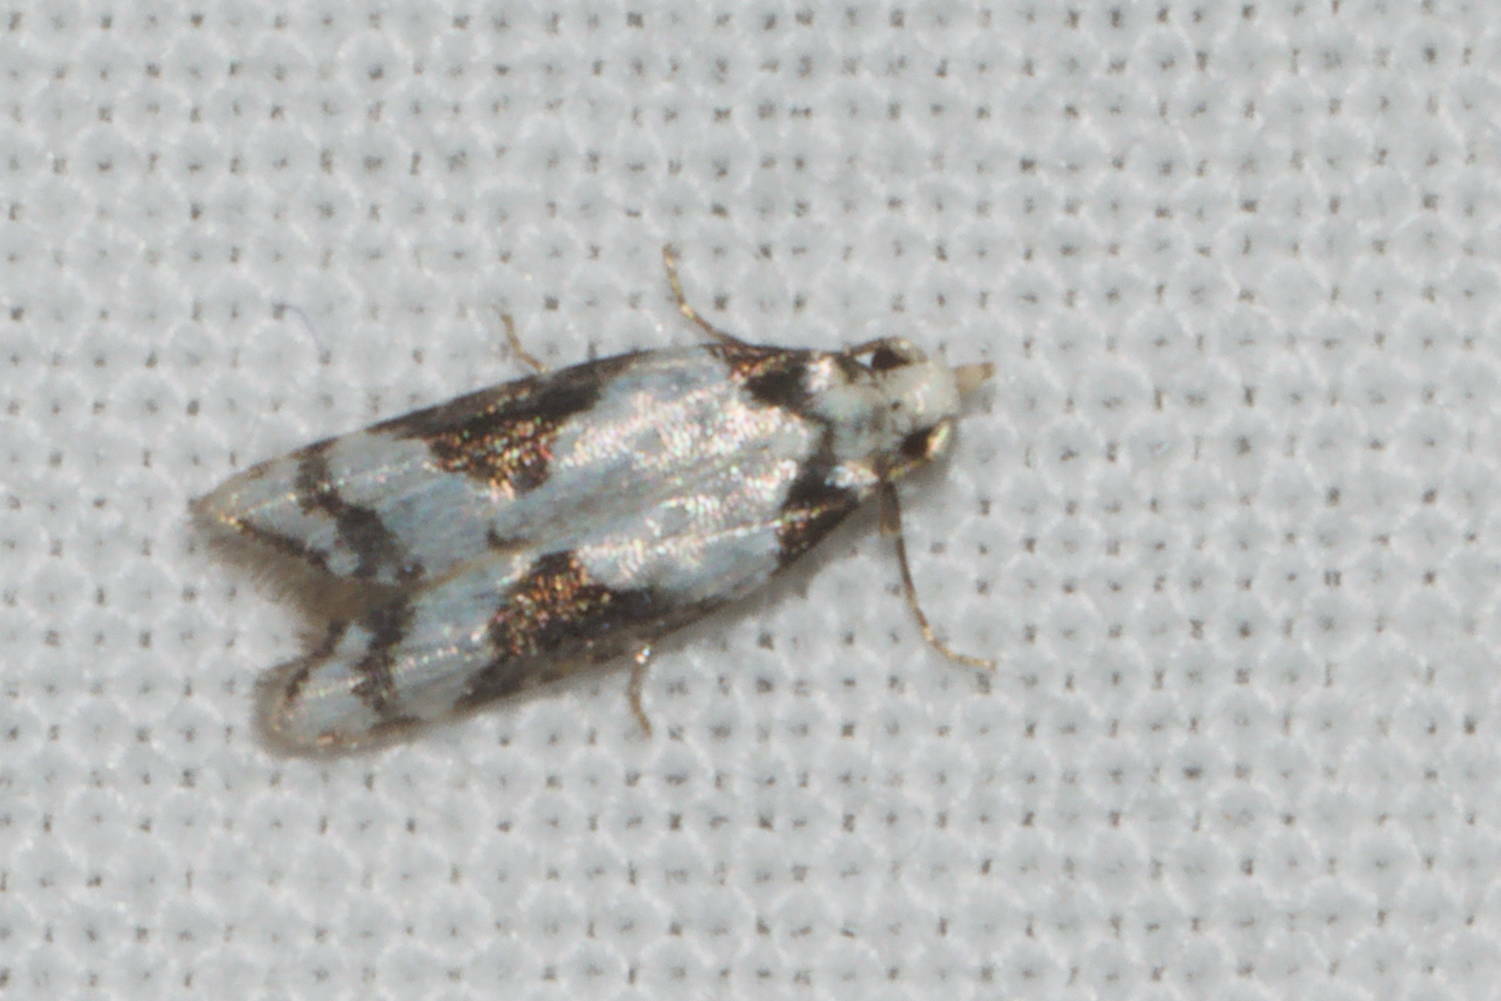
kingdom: Animalia
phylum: Arthropoda
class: Insecta
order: Lepidoptera
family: Carposinidae
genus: Carposina
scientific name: Carposina inscripta
